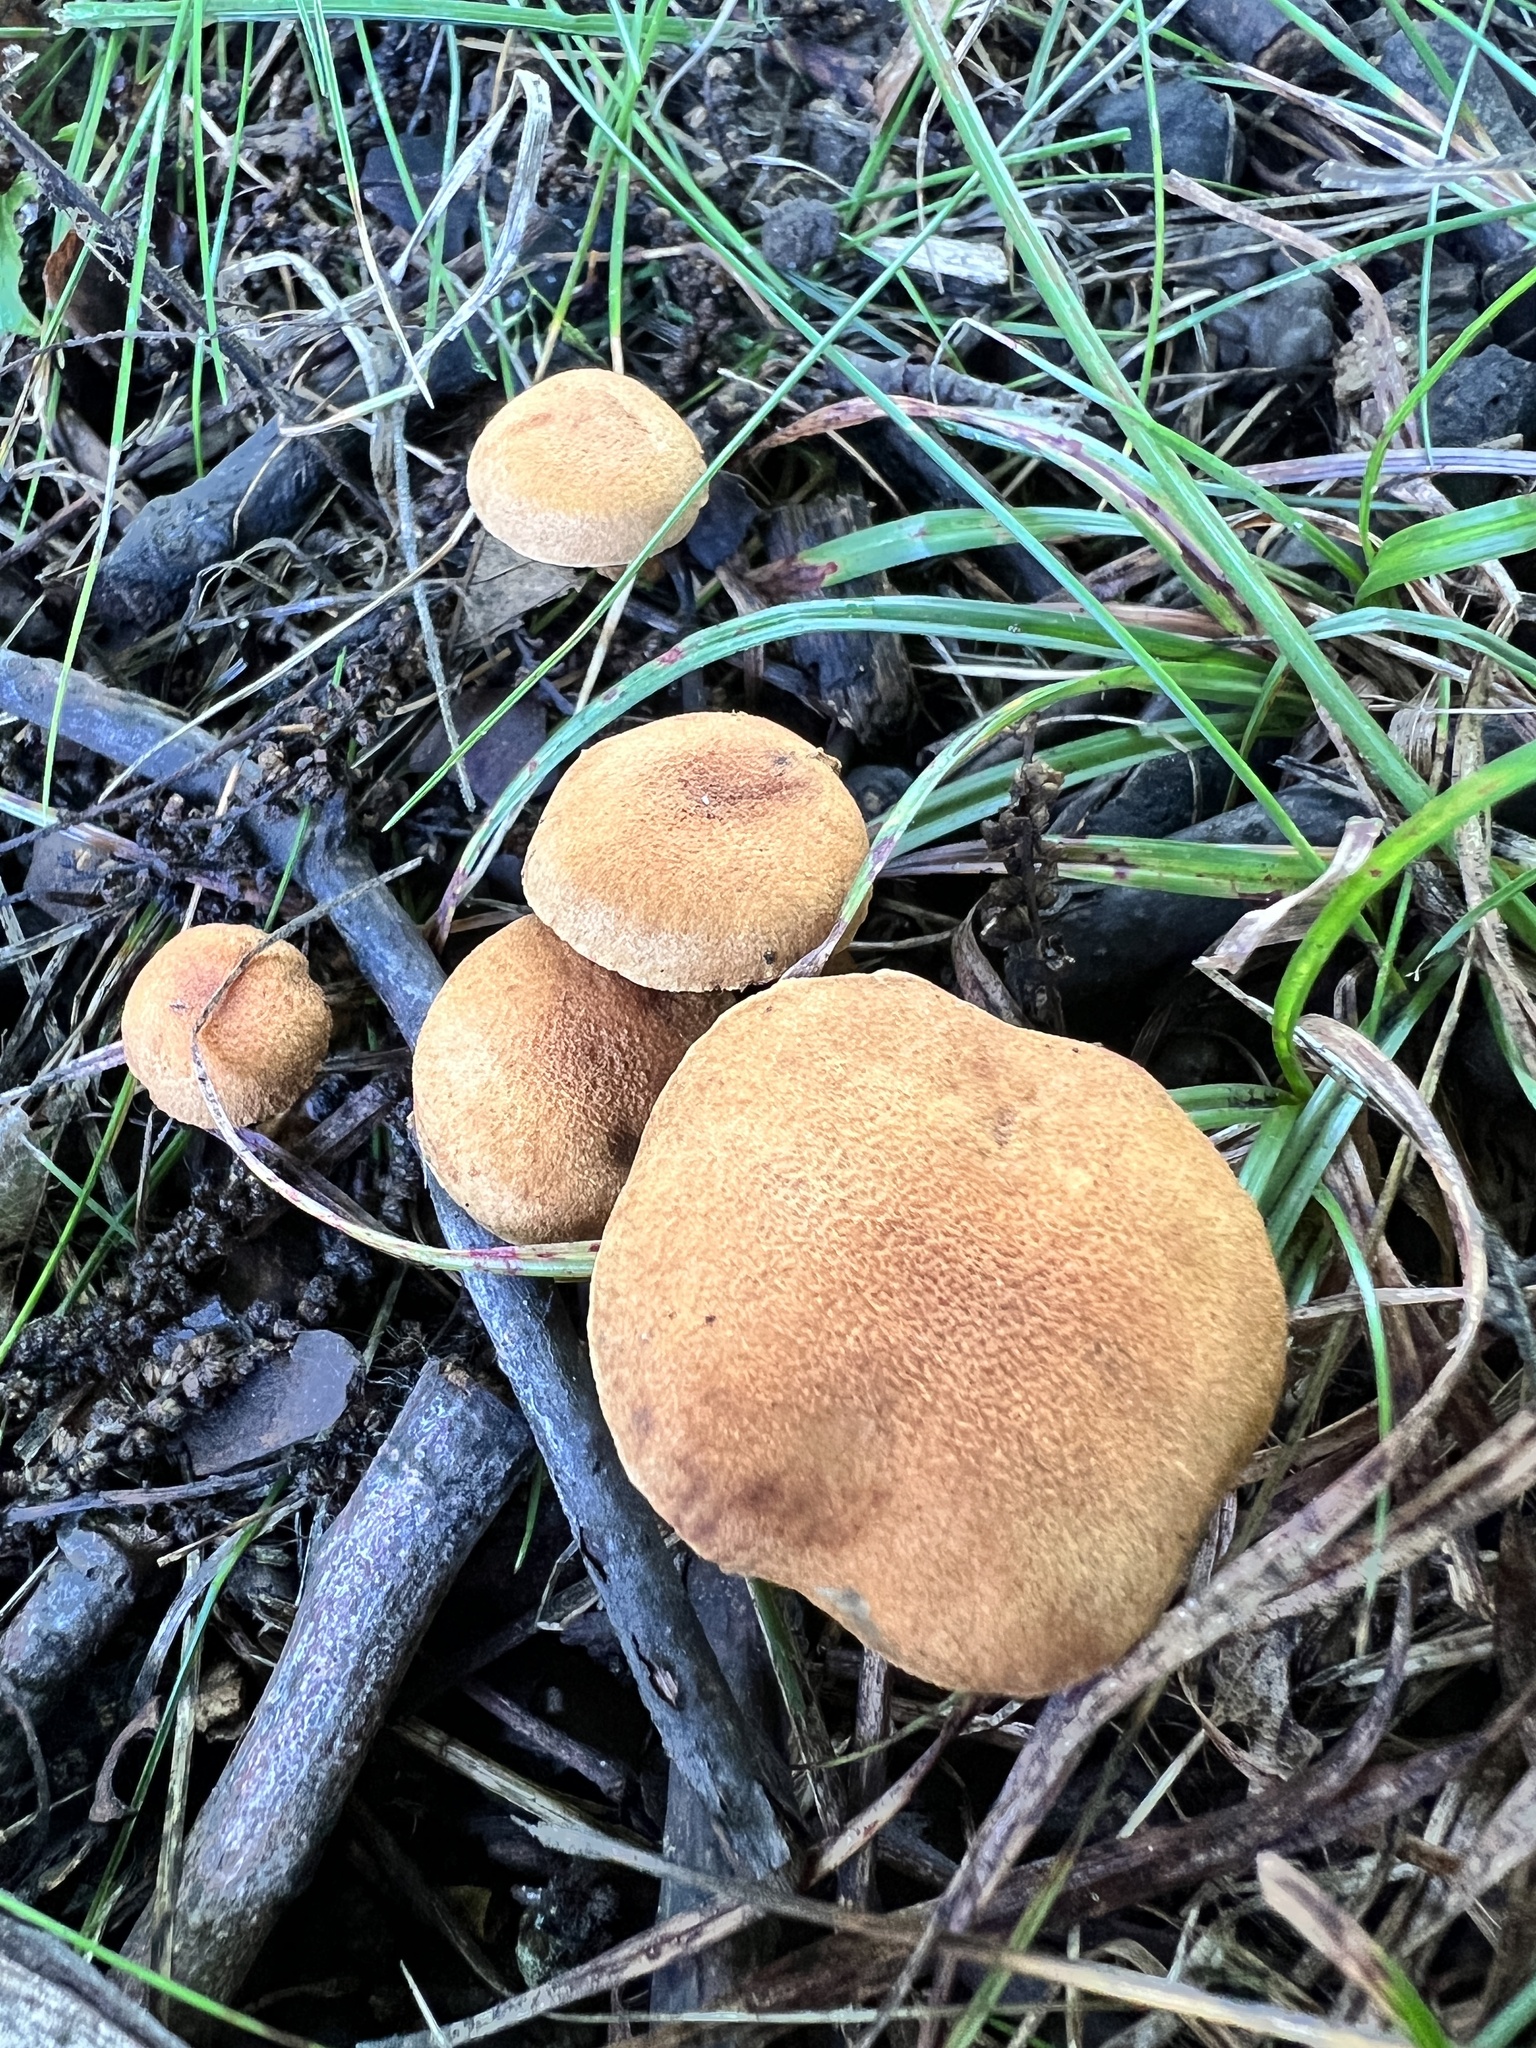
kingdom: Fungi
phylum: Basidiomycota
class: Agaricomycetes
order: Agaricales
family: Inocybaceae
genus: Mallocybe
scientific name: Mallocybe unicolor
